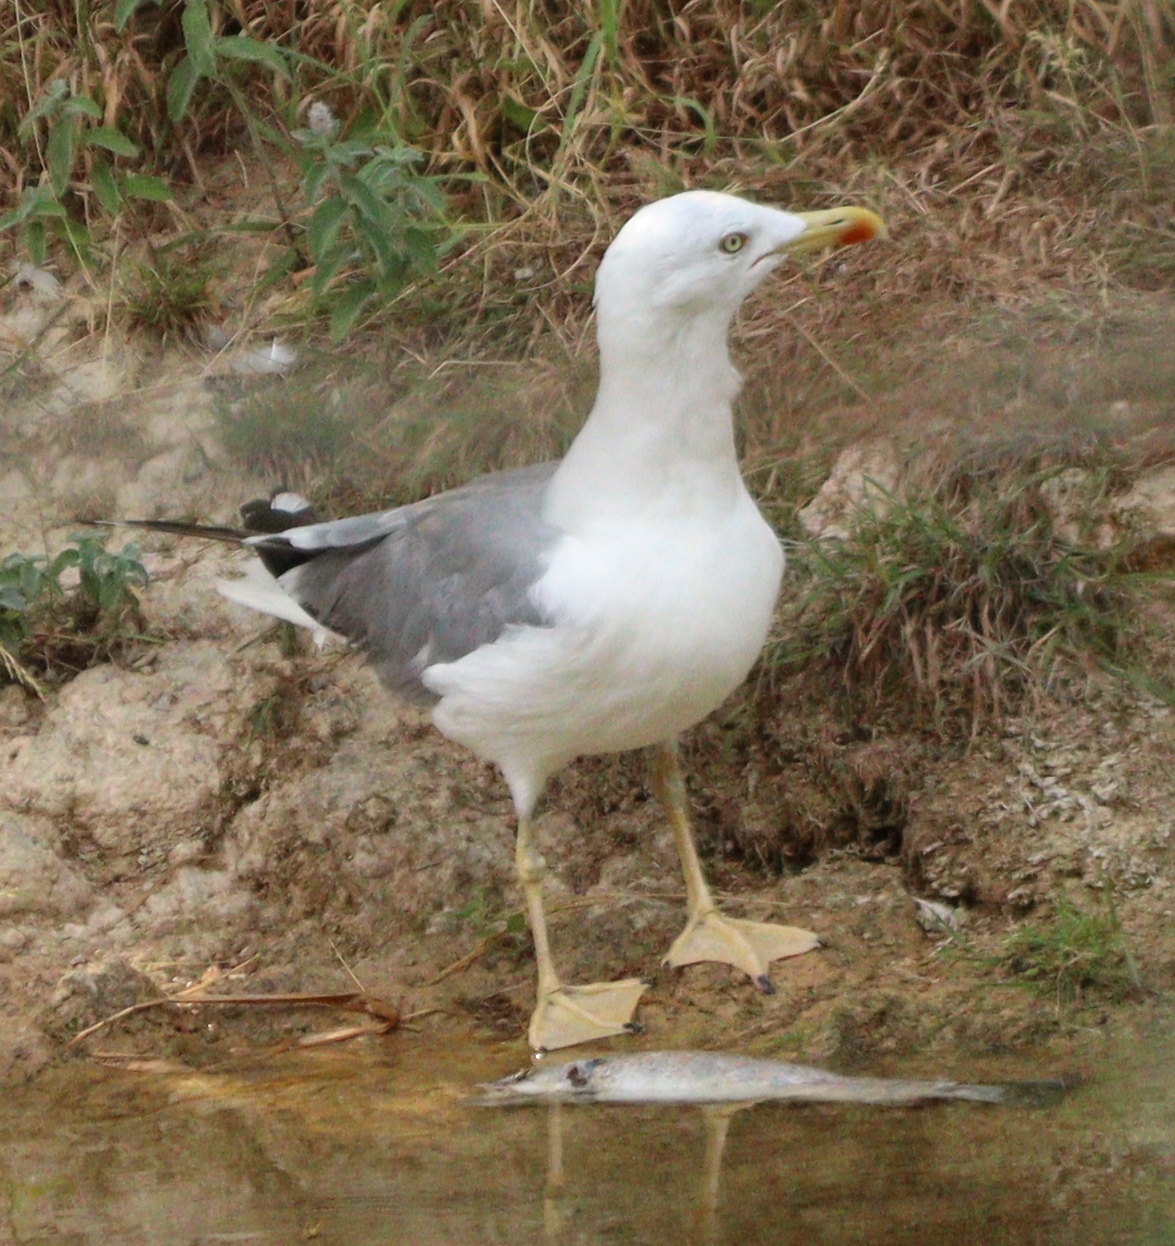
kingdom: Animalia
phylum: Chordata
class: Aves
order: Charadriiformes
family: Laridae
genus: Larus
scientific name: Larus michahellis
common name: Yellow-legged gull
